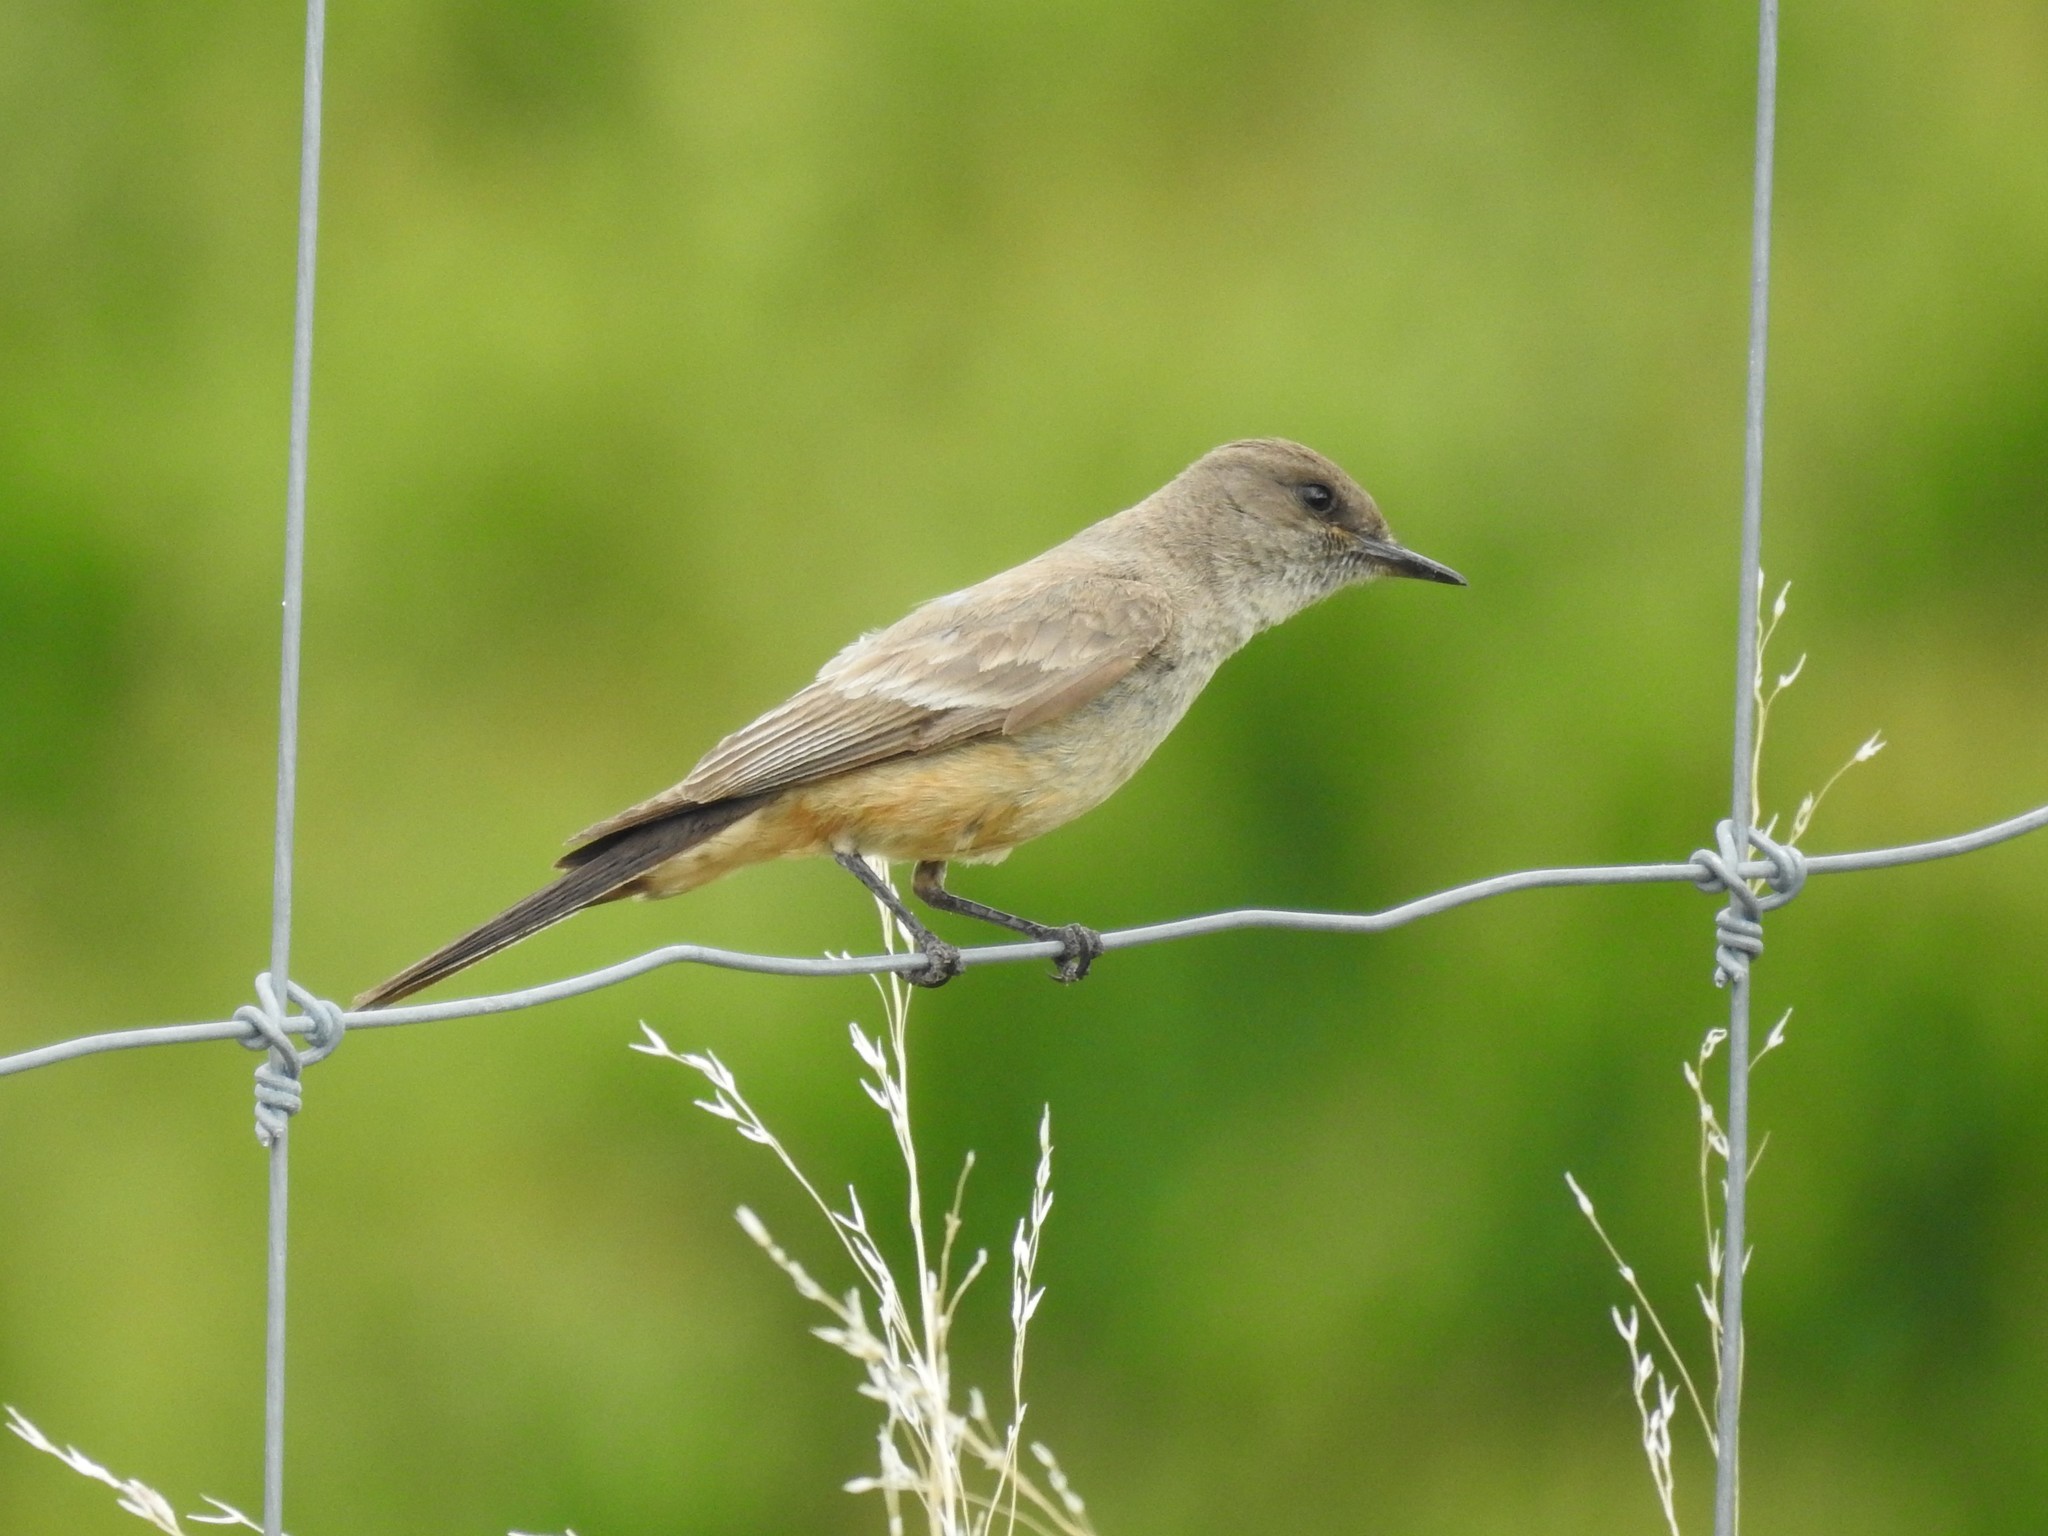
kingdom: Animalia
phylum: Chordata
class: Aves
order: Passeriformes
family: Tyrannidae
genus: Sayornis
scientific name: Sayornis saya
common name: Say's phoebe
